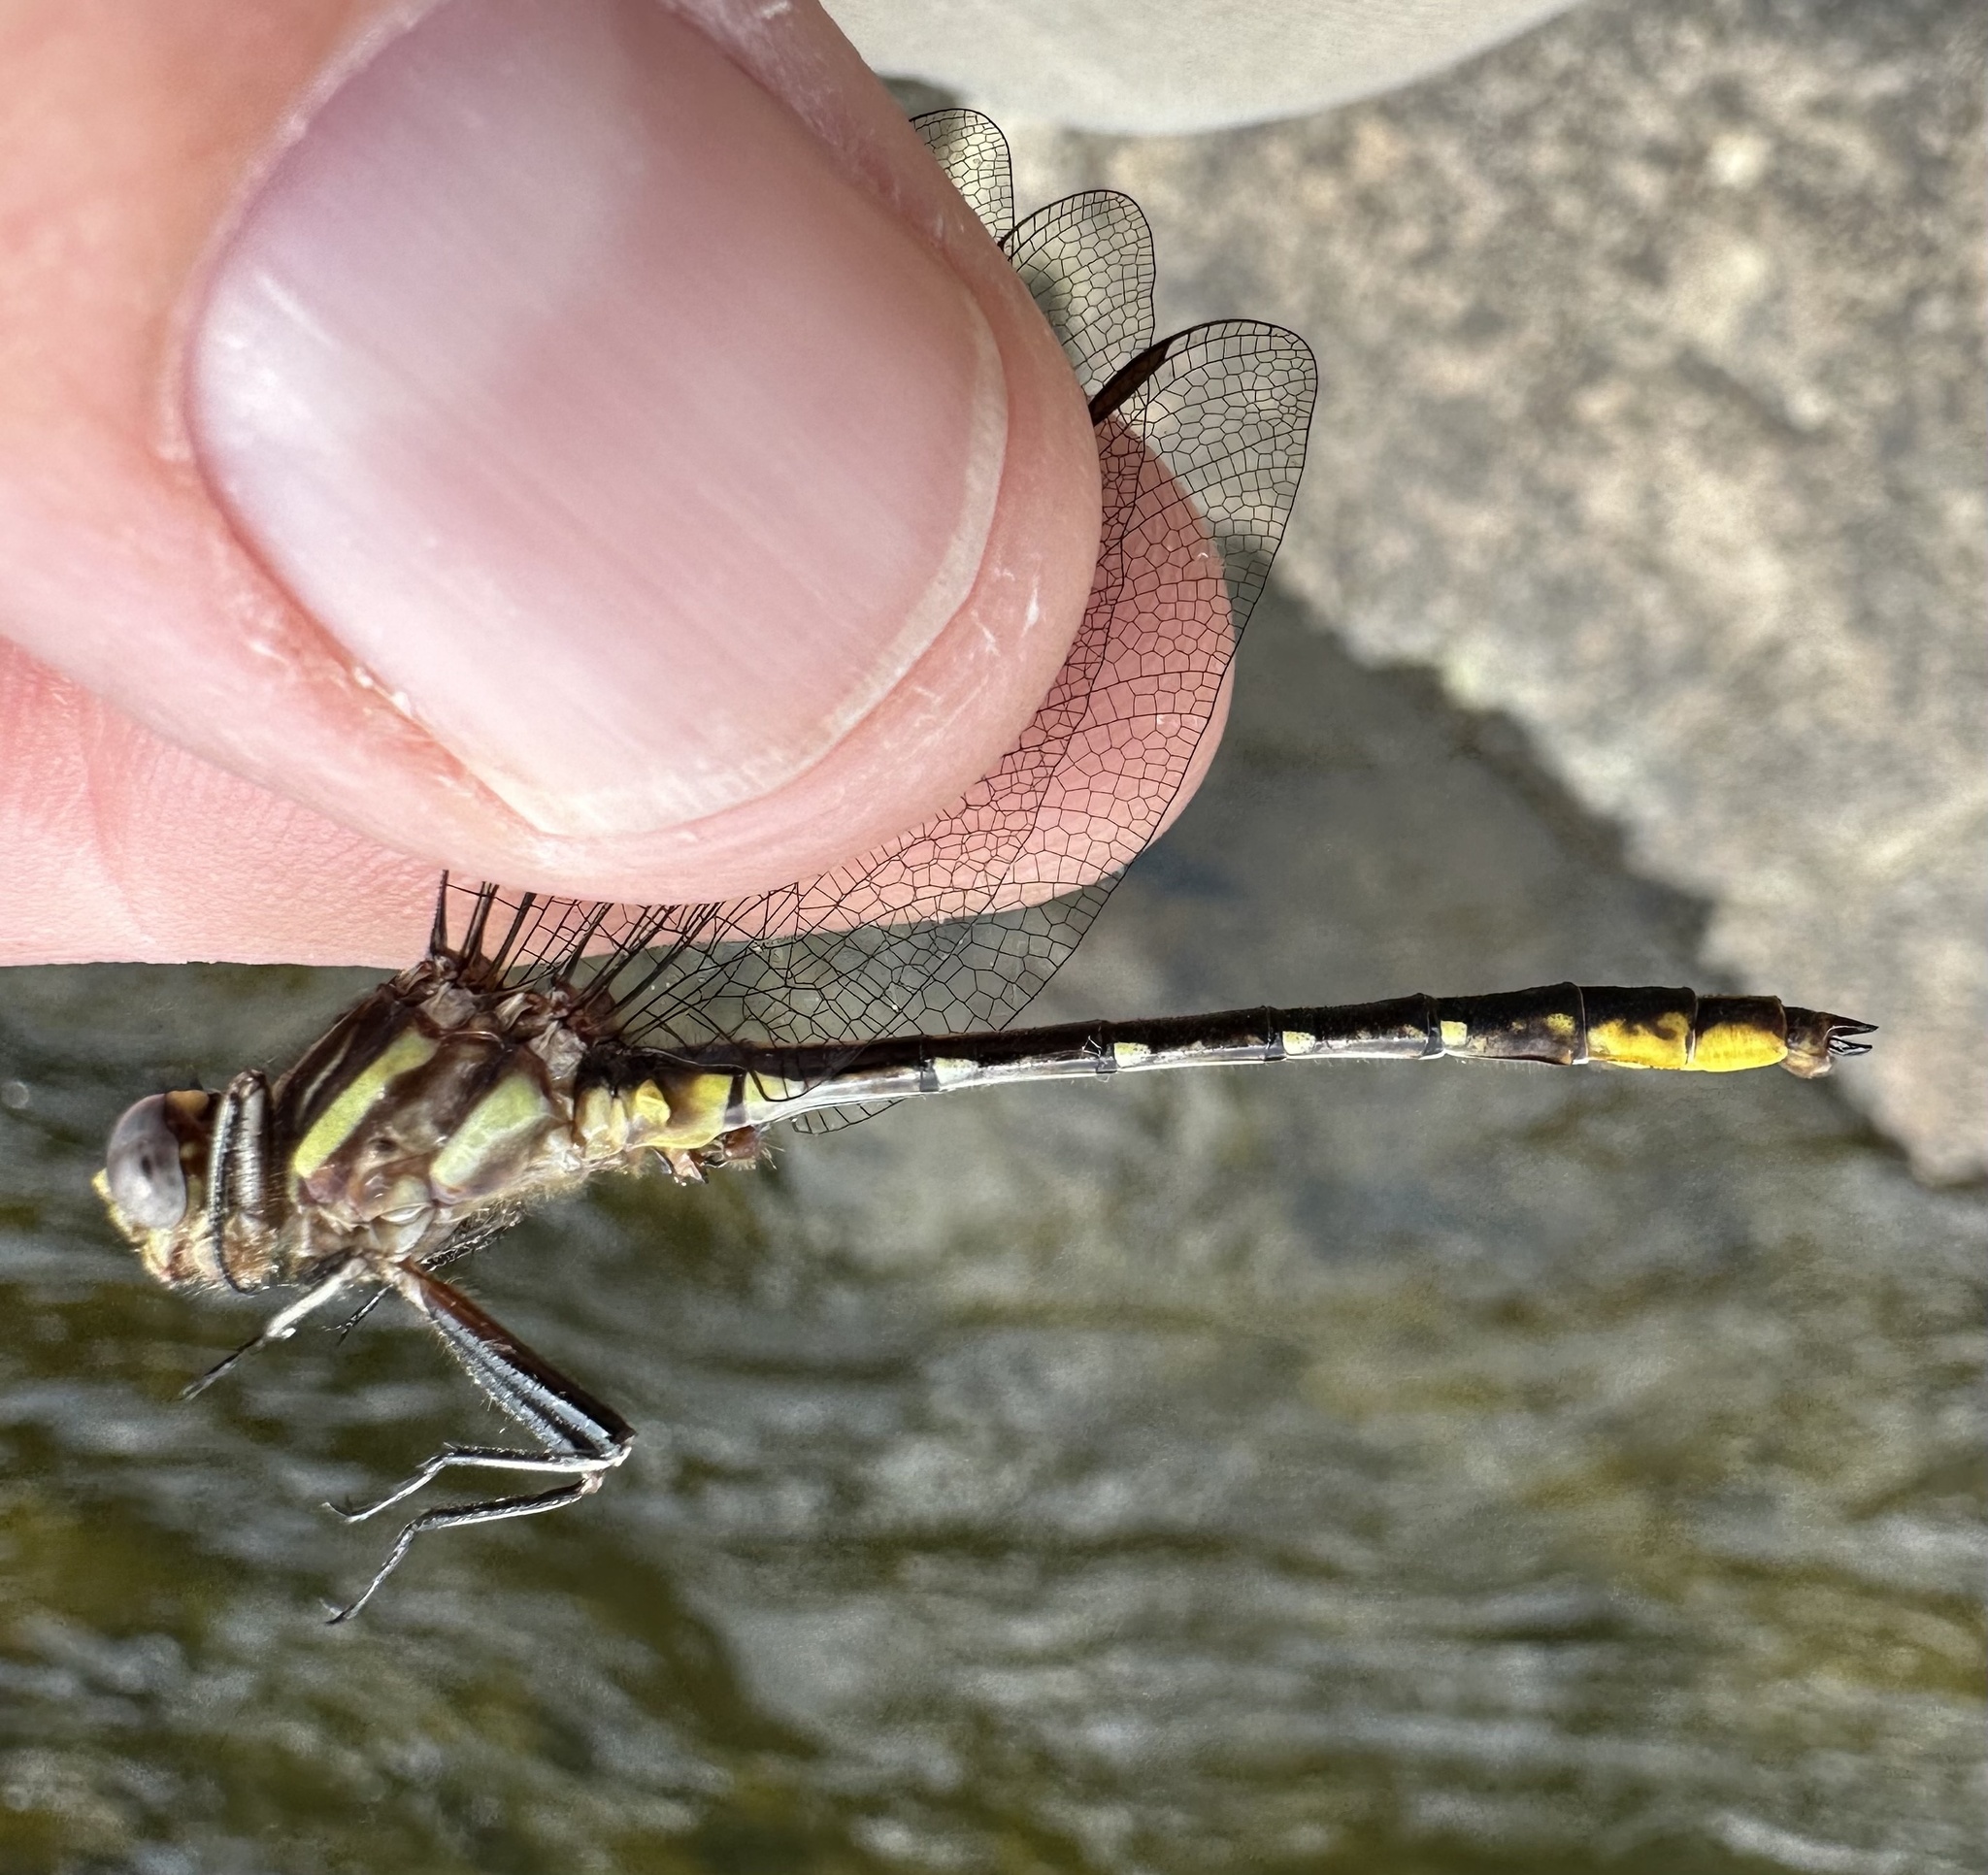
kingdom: Animalia
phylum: Arthropoda
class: Insecta
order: Odonata
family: Gomphidae
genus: Phanogomphus
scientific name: Phanogomphus exilis
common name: Lancet clubtail
